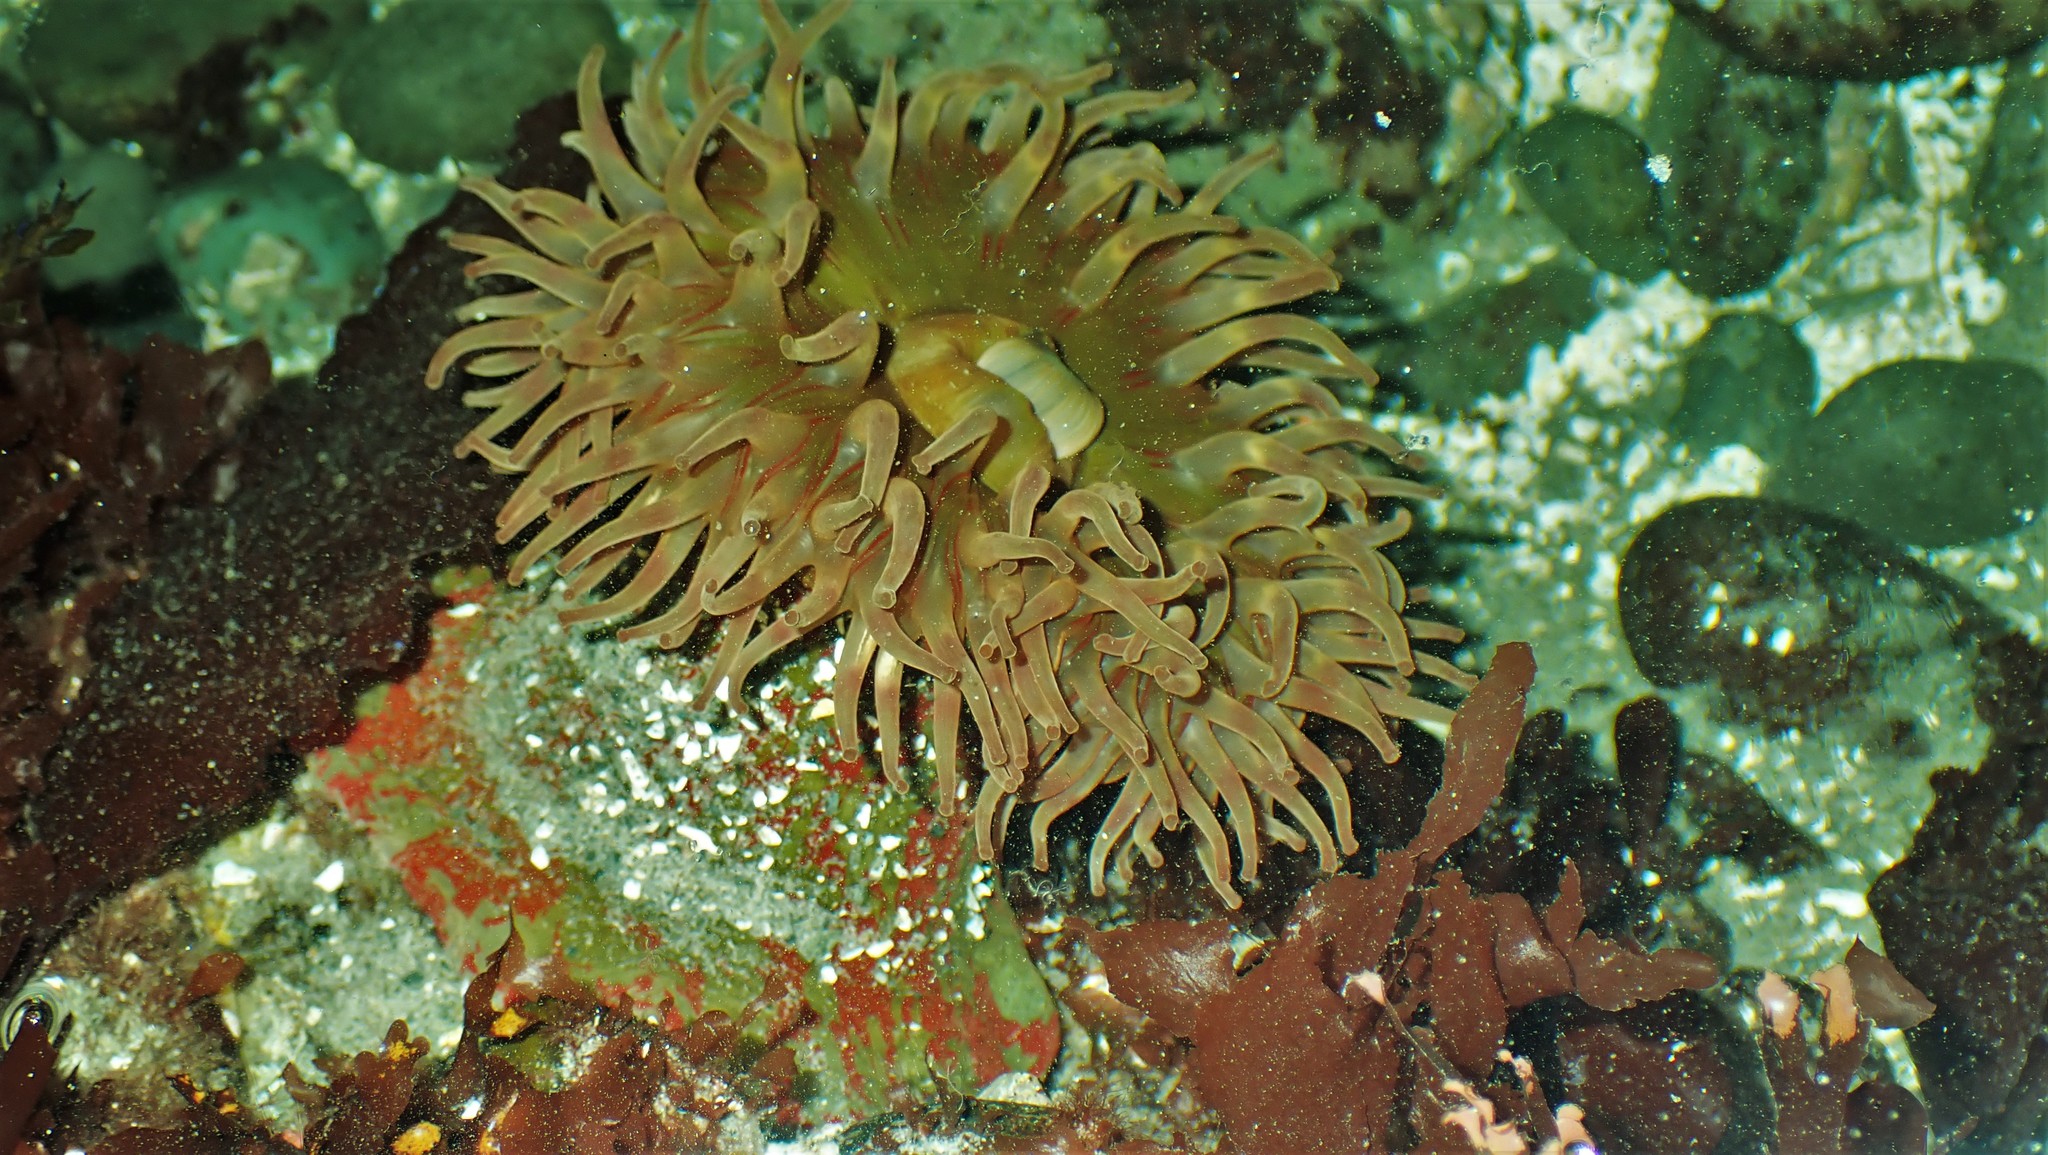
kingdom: Animalia
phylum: Cnidaria
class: Anthozoa
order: Actiniaria
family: Actiniidae
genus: Urticina
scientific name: Urticina grebelnyi
